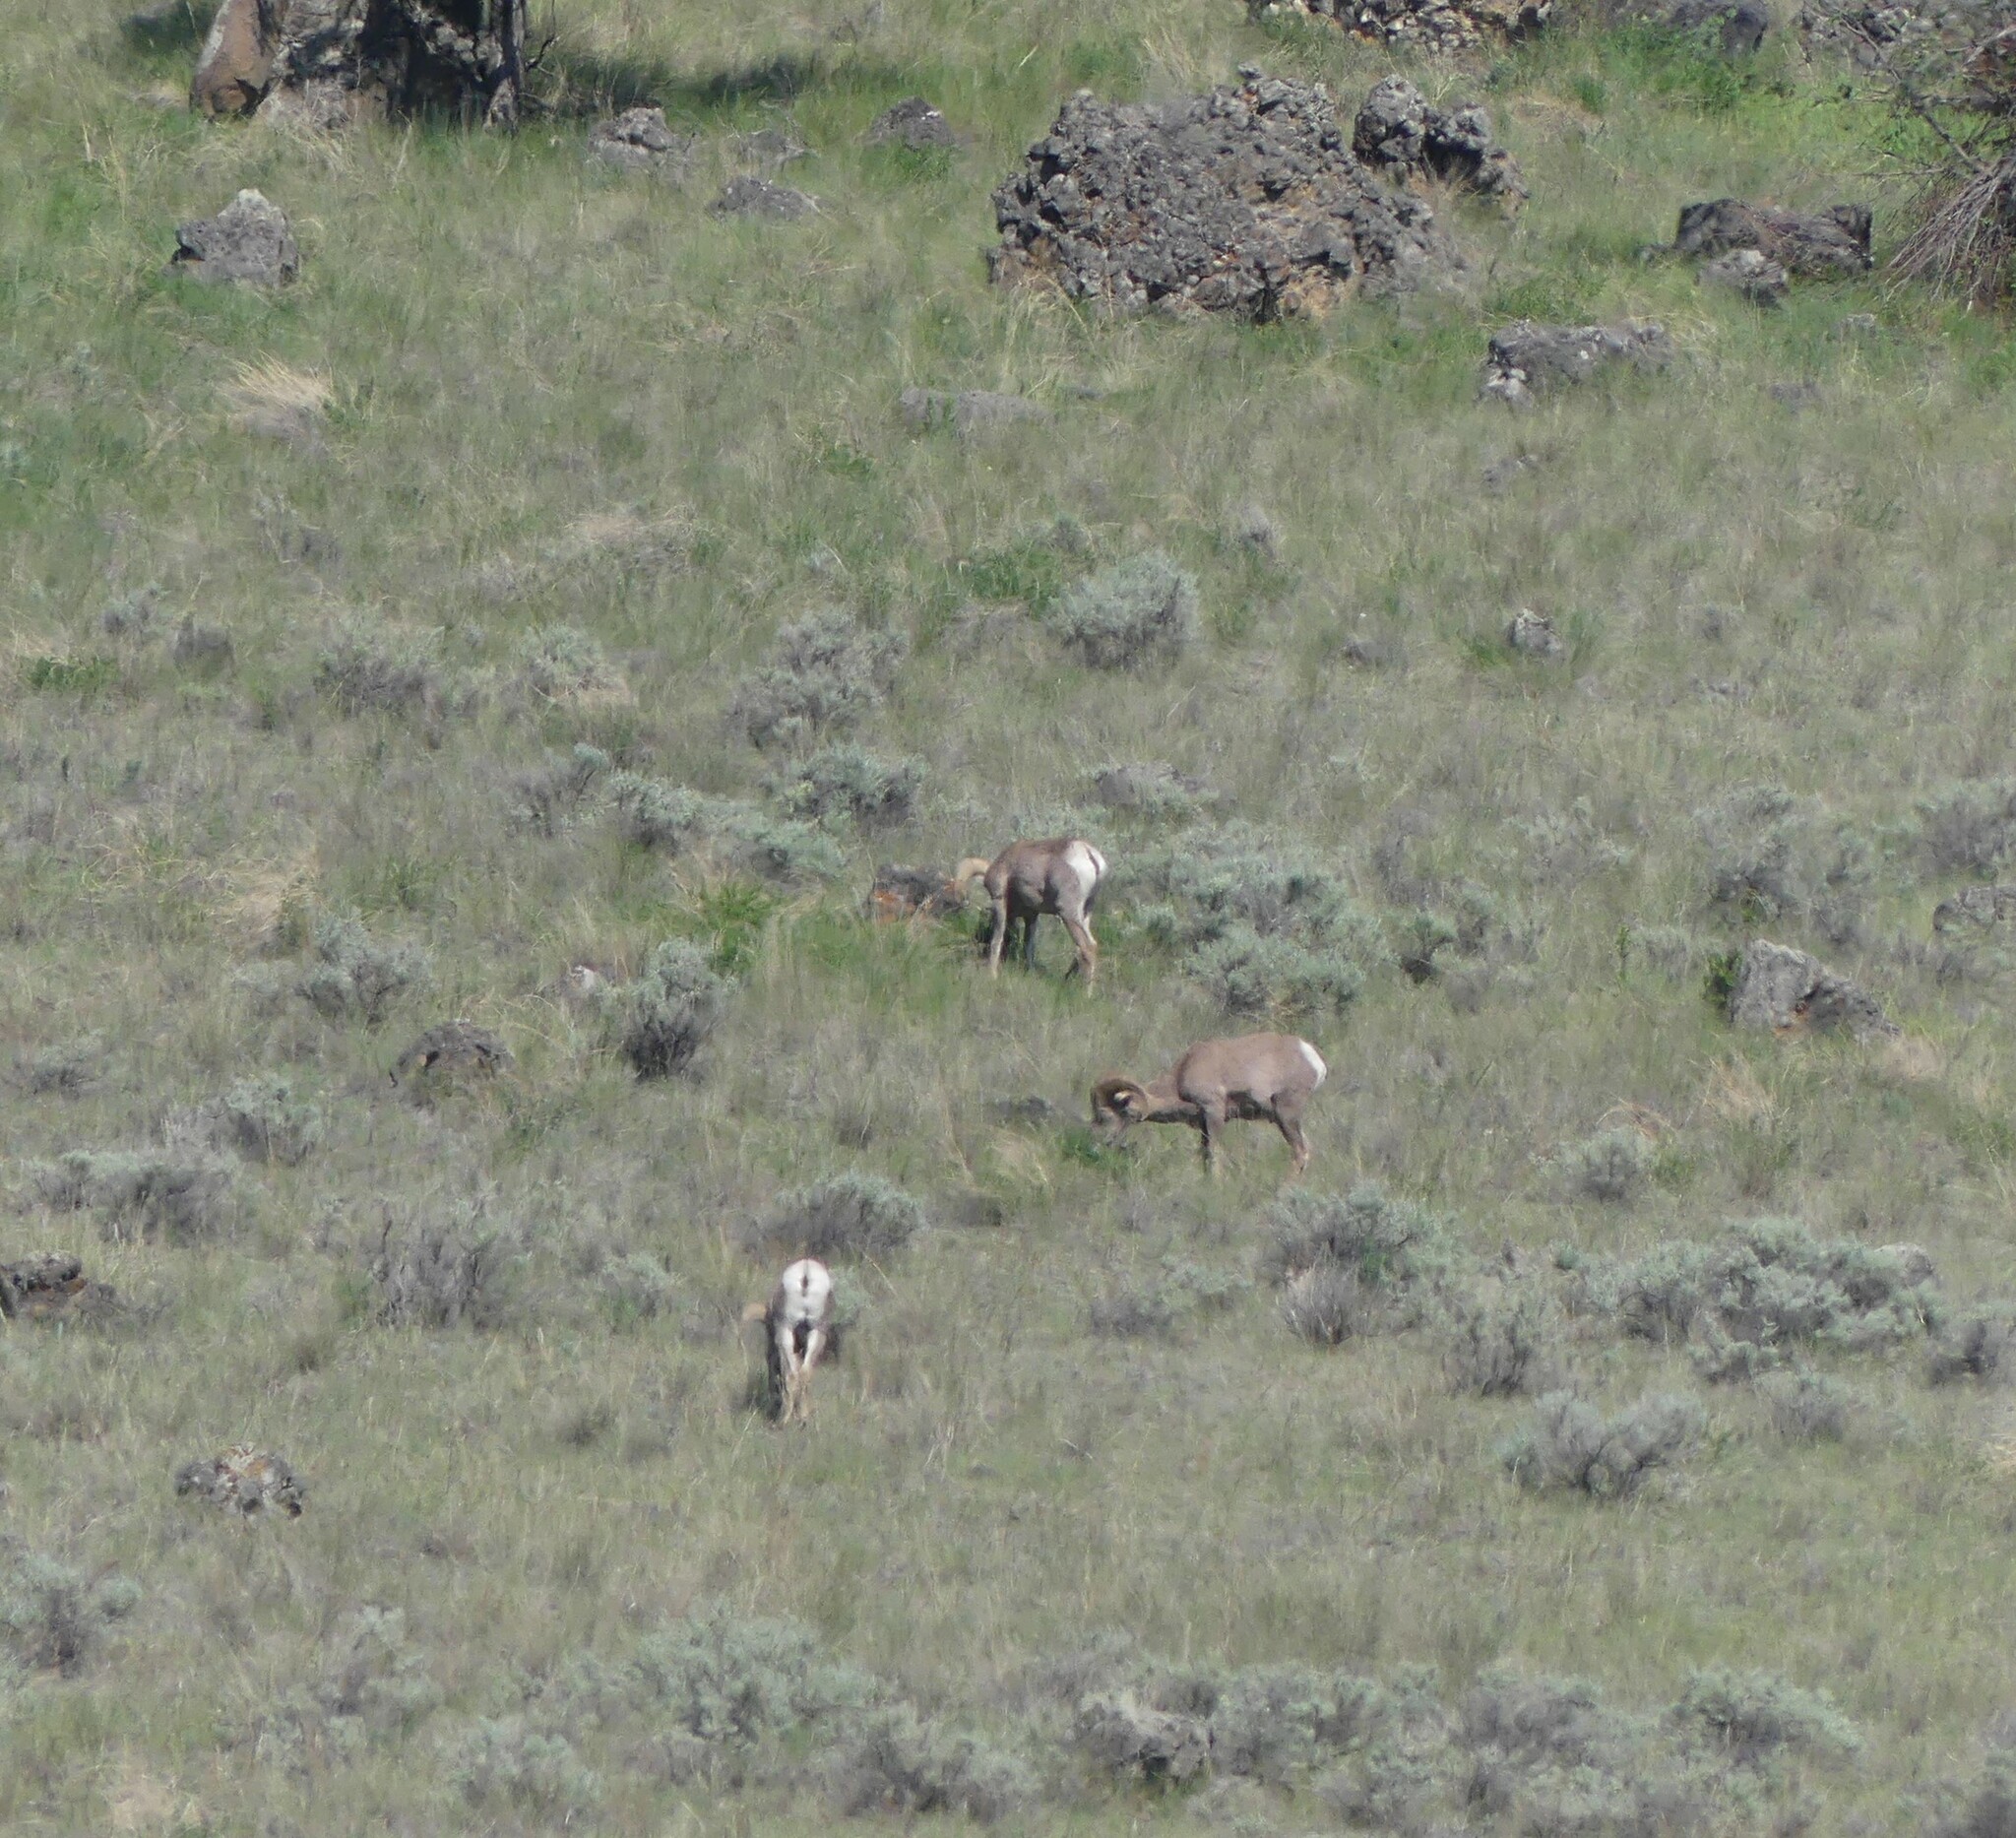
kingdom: Animalia
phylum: Chordata
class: Mammalia
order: Artiodactyla
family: Bovidae
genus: Ovis
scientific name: Ovis canadensis
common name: Bighorn sheep
